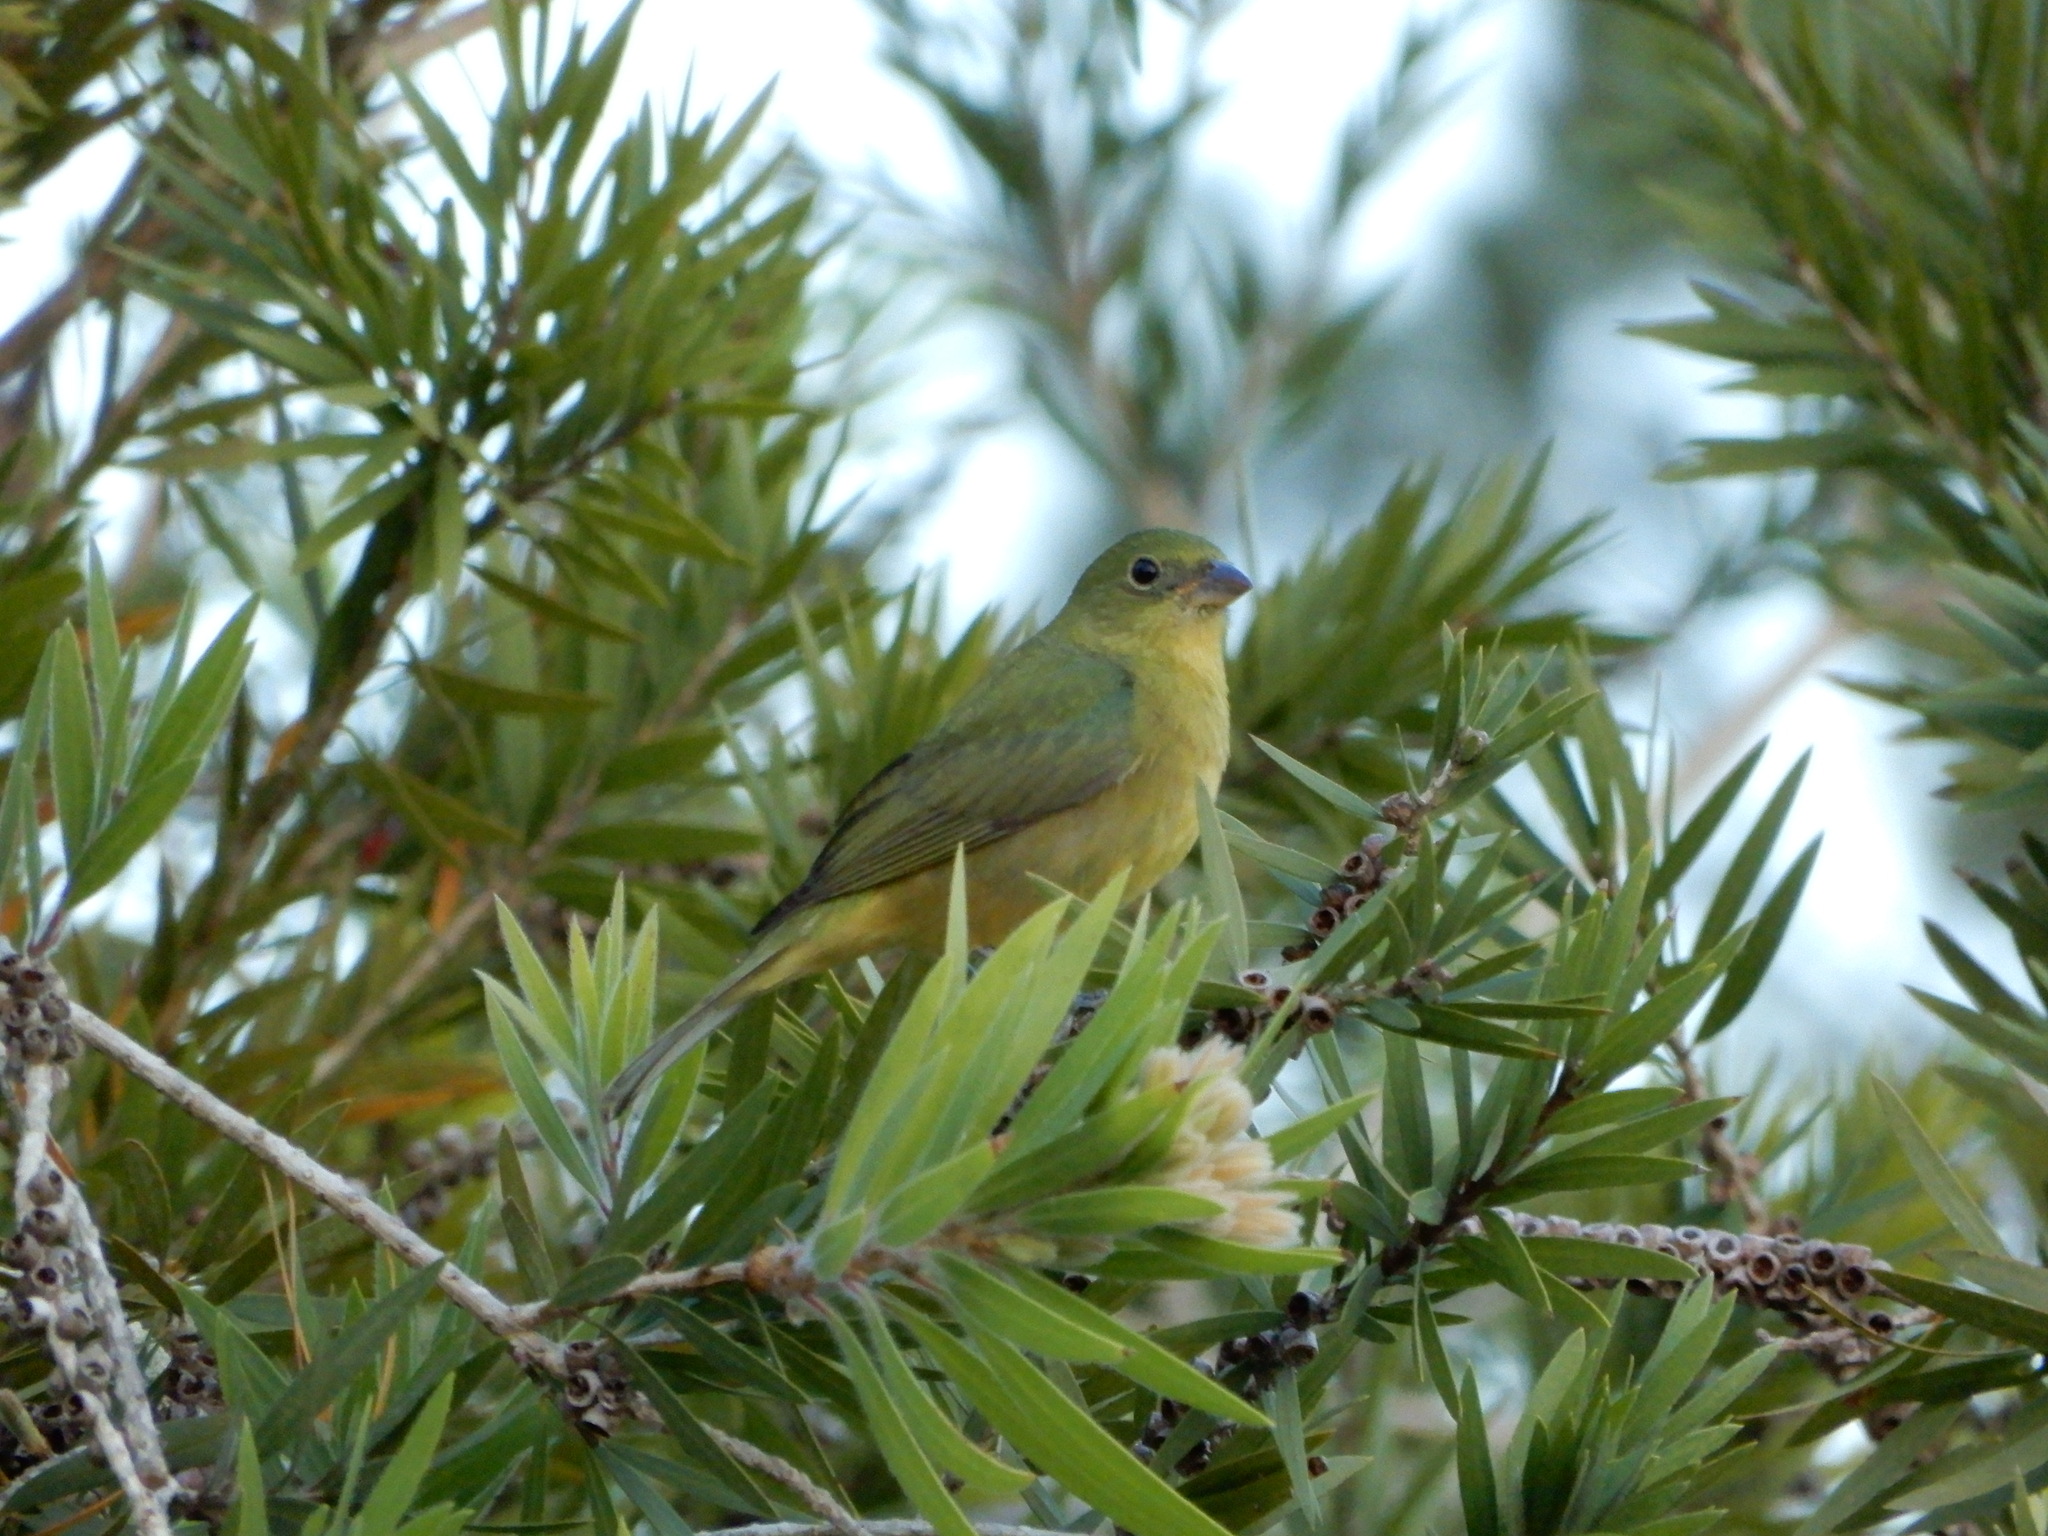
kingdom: Animalia
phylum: Chordata
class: Aves
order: Passeriformes
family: Cardinalidae
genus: Passerina
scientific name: Passerina ciris
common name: Painted bunting
